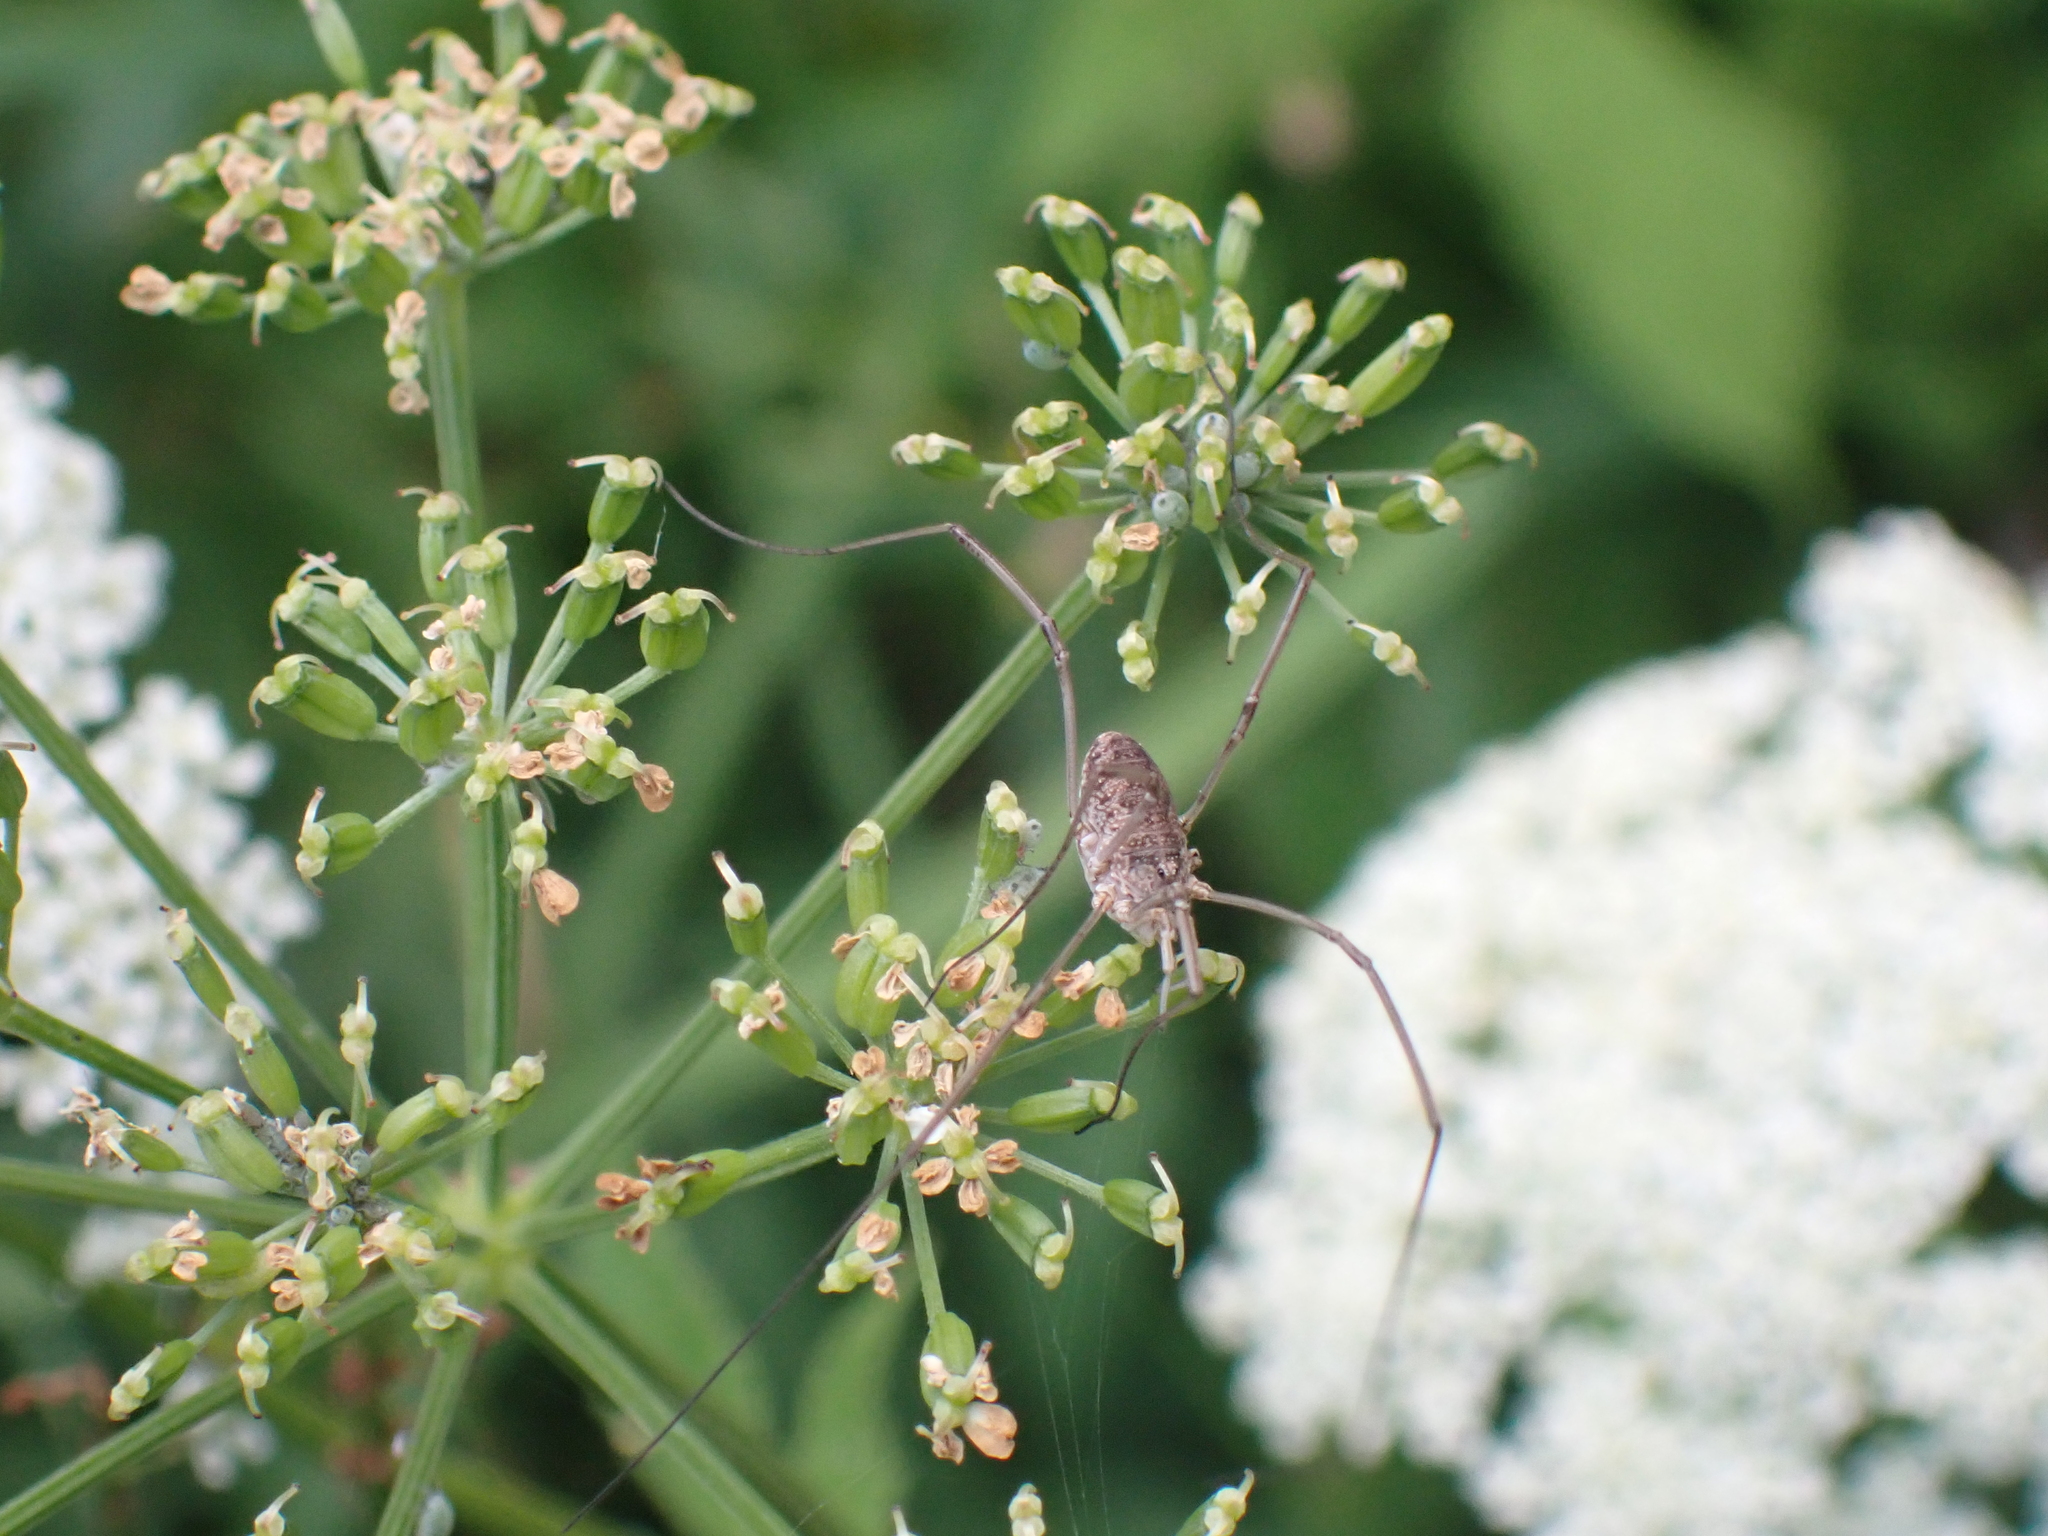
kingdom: Animalia
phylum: Arthropoda
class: Arachnida
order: Opiliones
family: Phalangiidae
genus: Phalangium
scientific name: Phalangium opilio
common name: Daddy longleg
